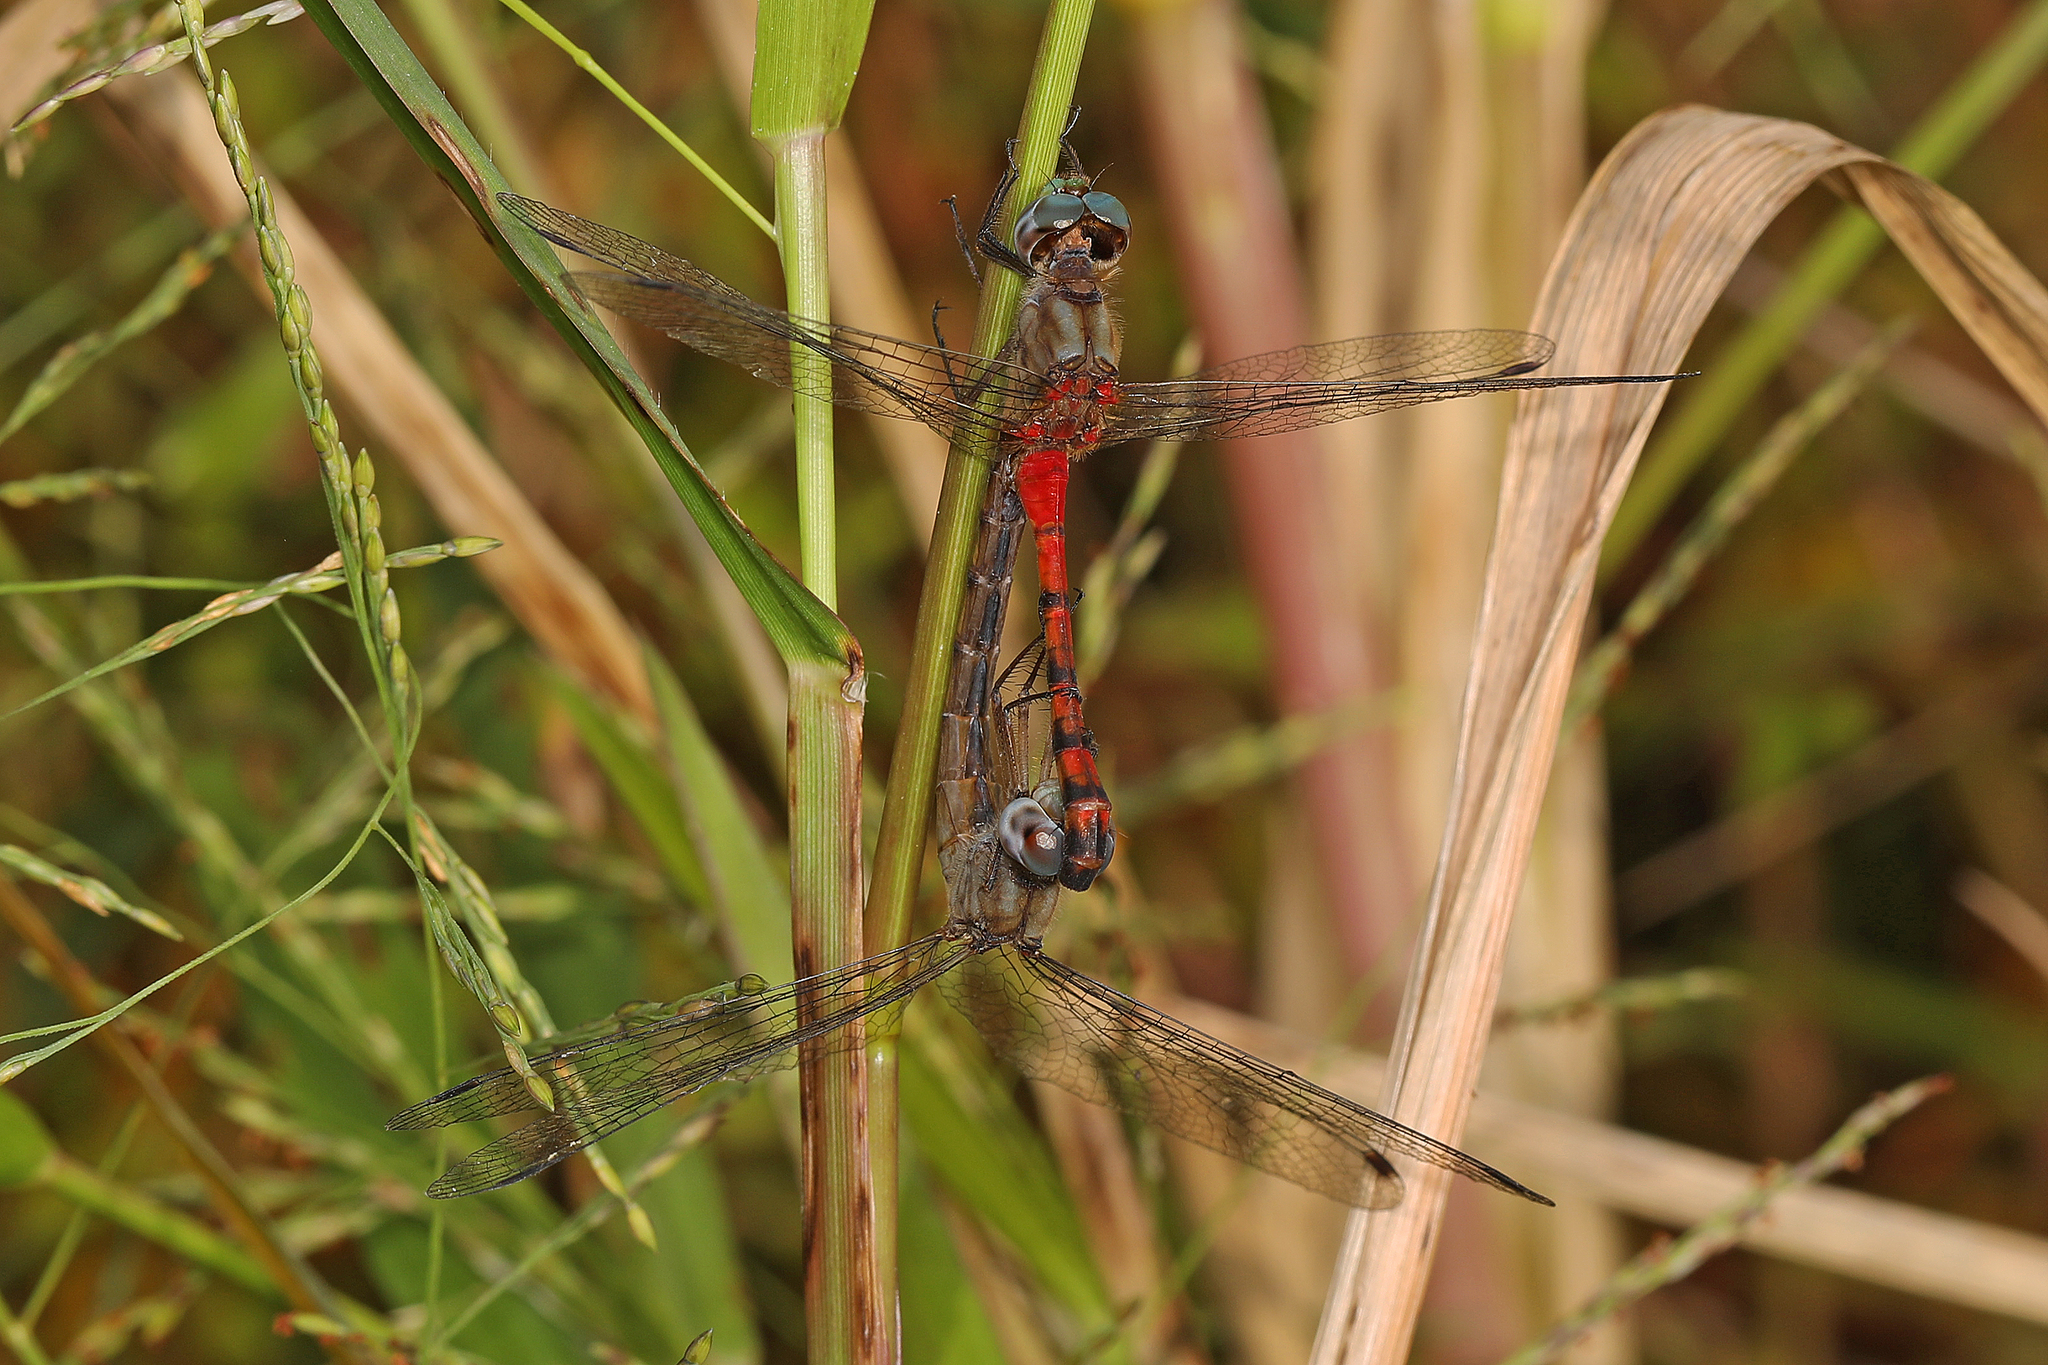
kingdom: Animalia
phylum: Arthropoda
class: Insecta
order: Odonata
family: Libellulidae
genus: Sympetrum
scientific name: Sympetrum ambiguum
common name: Blue-faced meadowhawk
